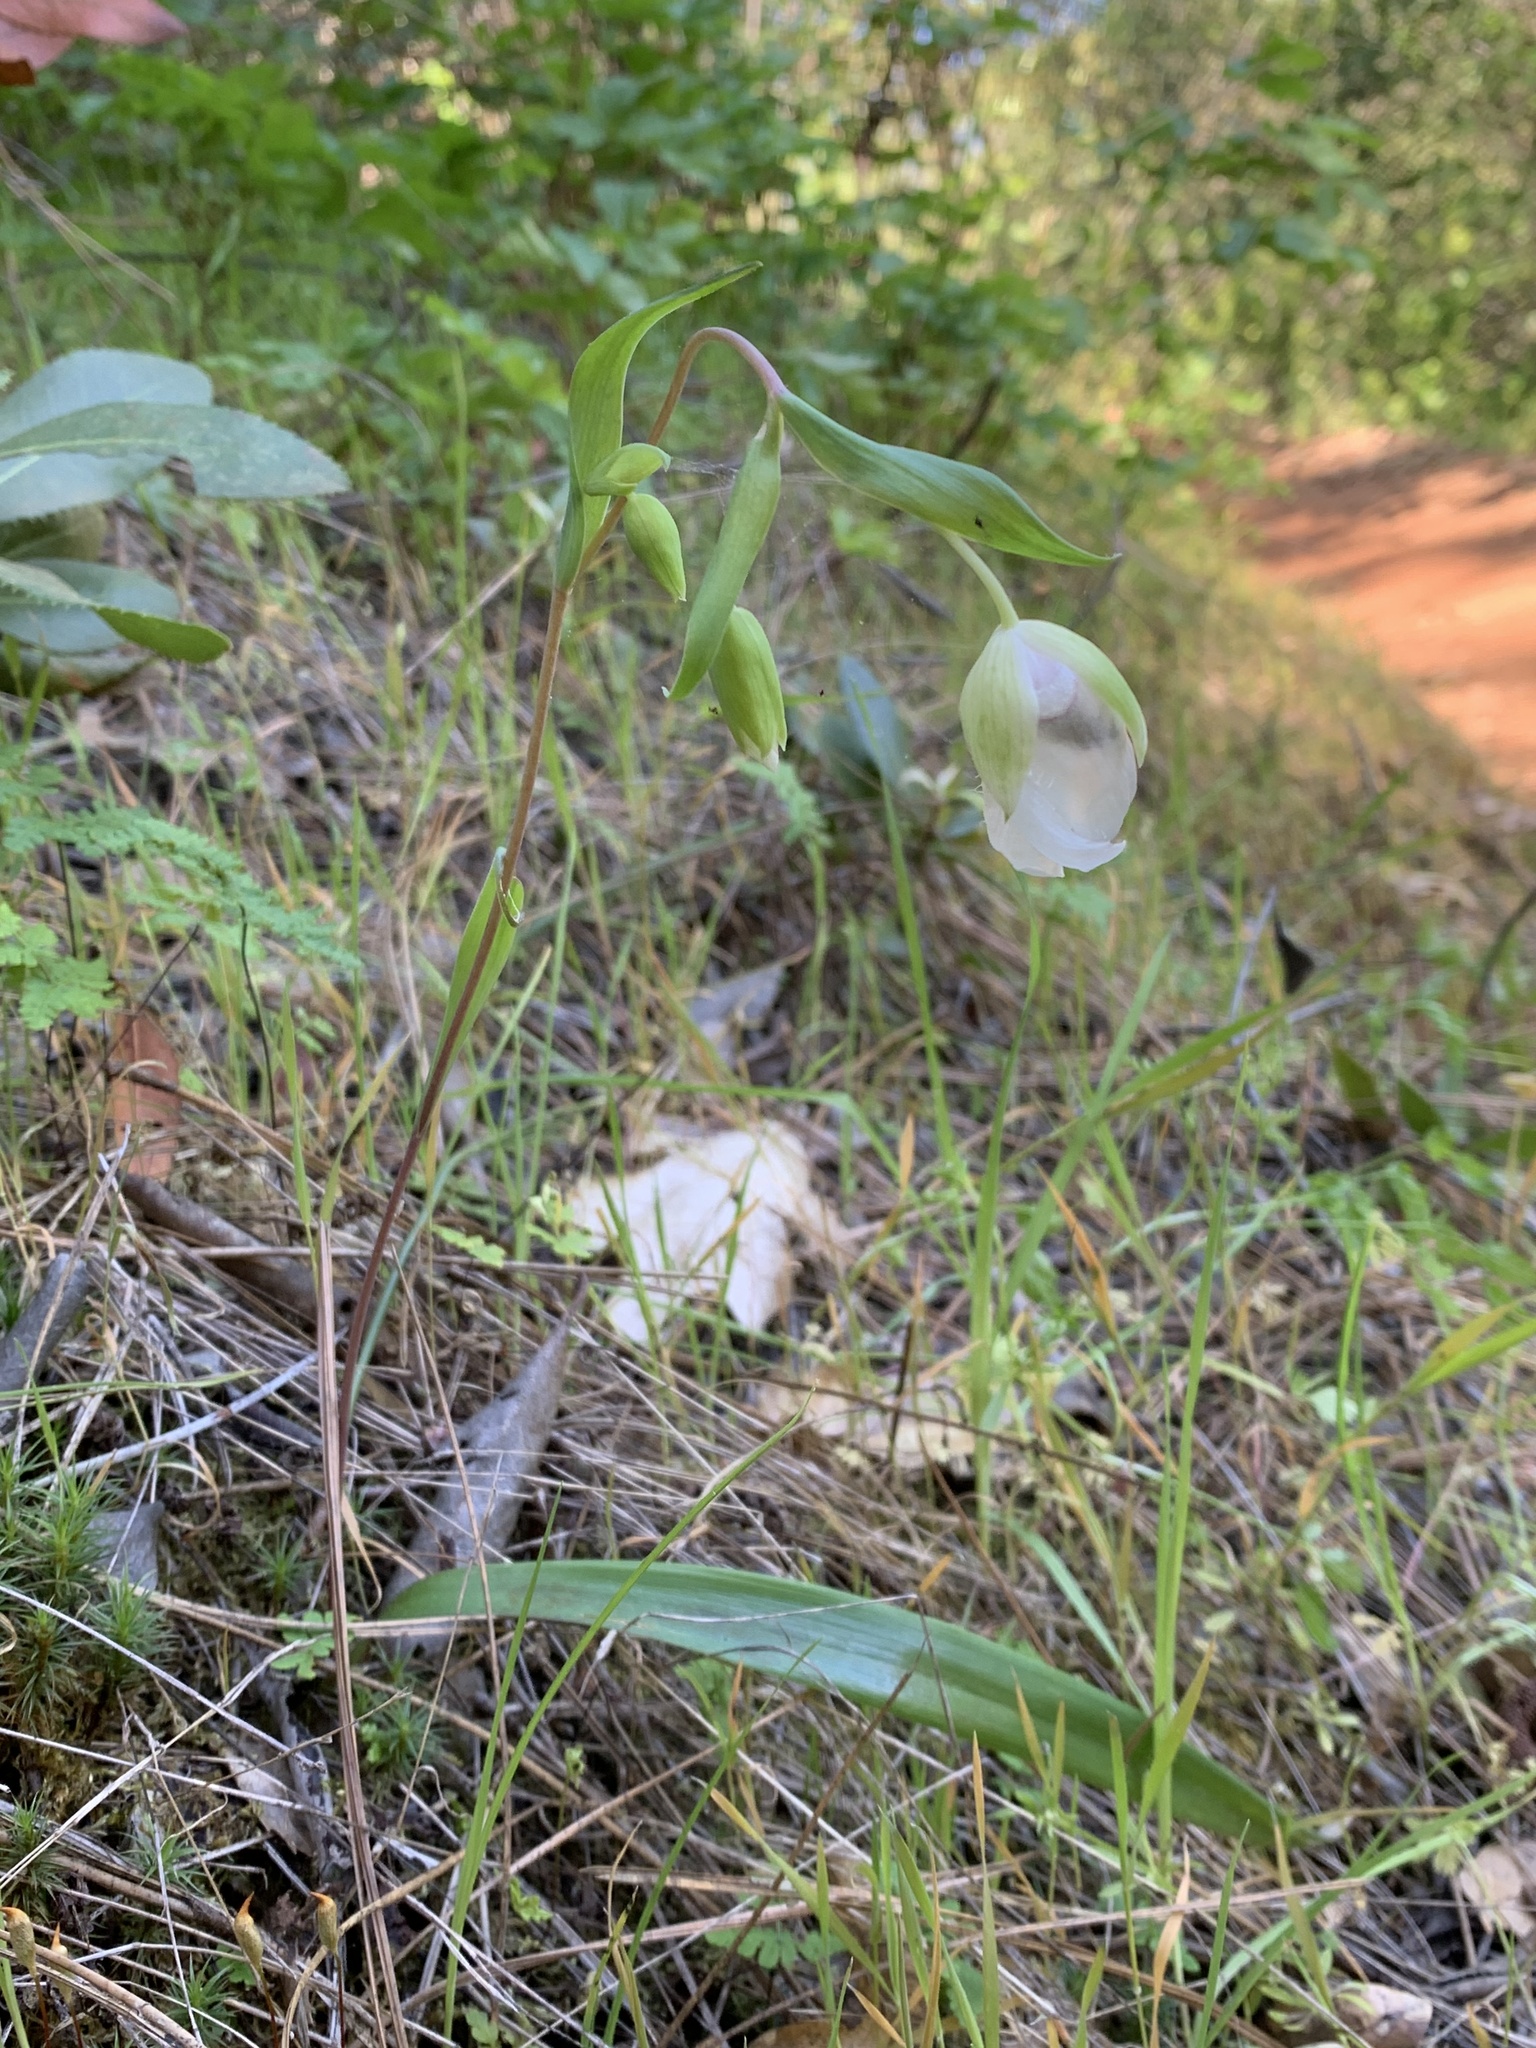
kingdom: Plantae
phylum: Tracheophyta
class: Liliopsida
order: Liliales
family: Liliaceae
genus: Calochortus
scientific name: Calochortus albus
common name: Fairy-lantern
